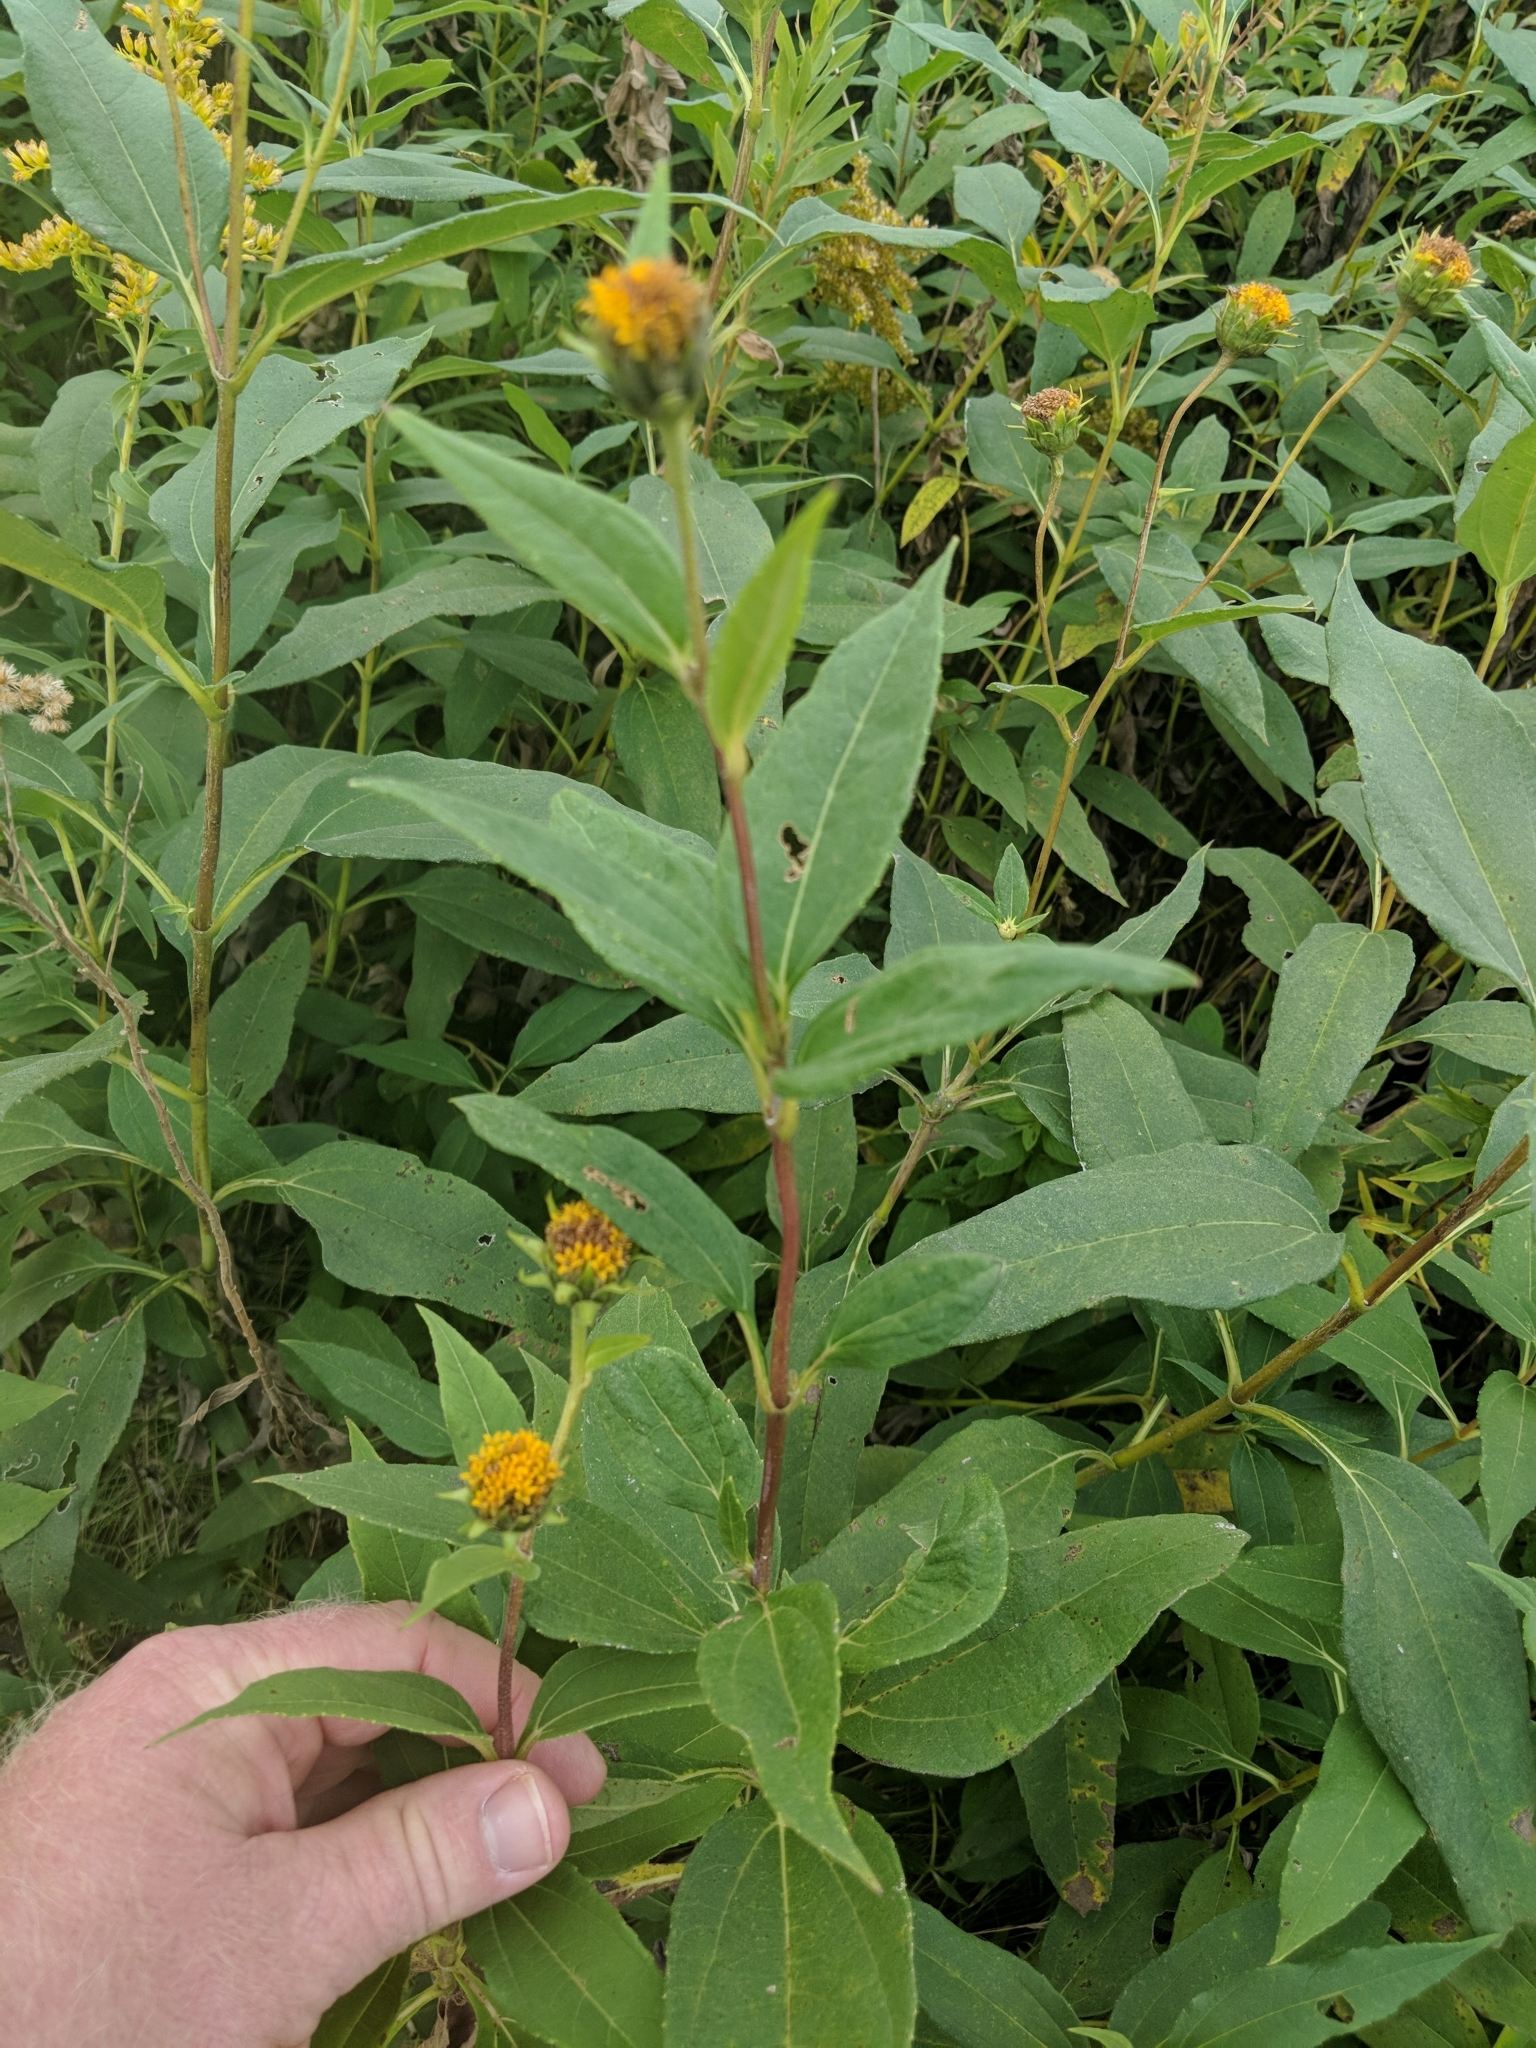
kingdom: Plantae
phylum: Tracheophyta
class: Magnoliopsida
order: Asterales
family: Asteraceae
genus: Helianthus
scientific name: Helianthus tuberosus
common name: Jerusalem artichoke
